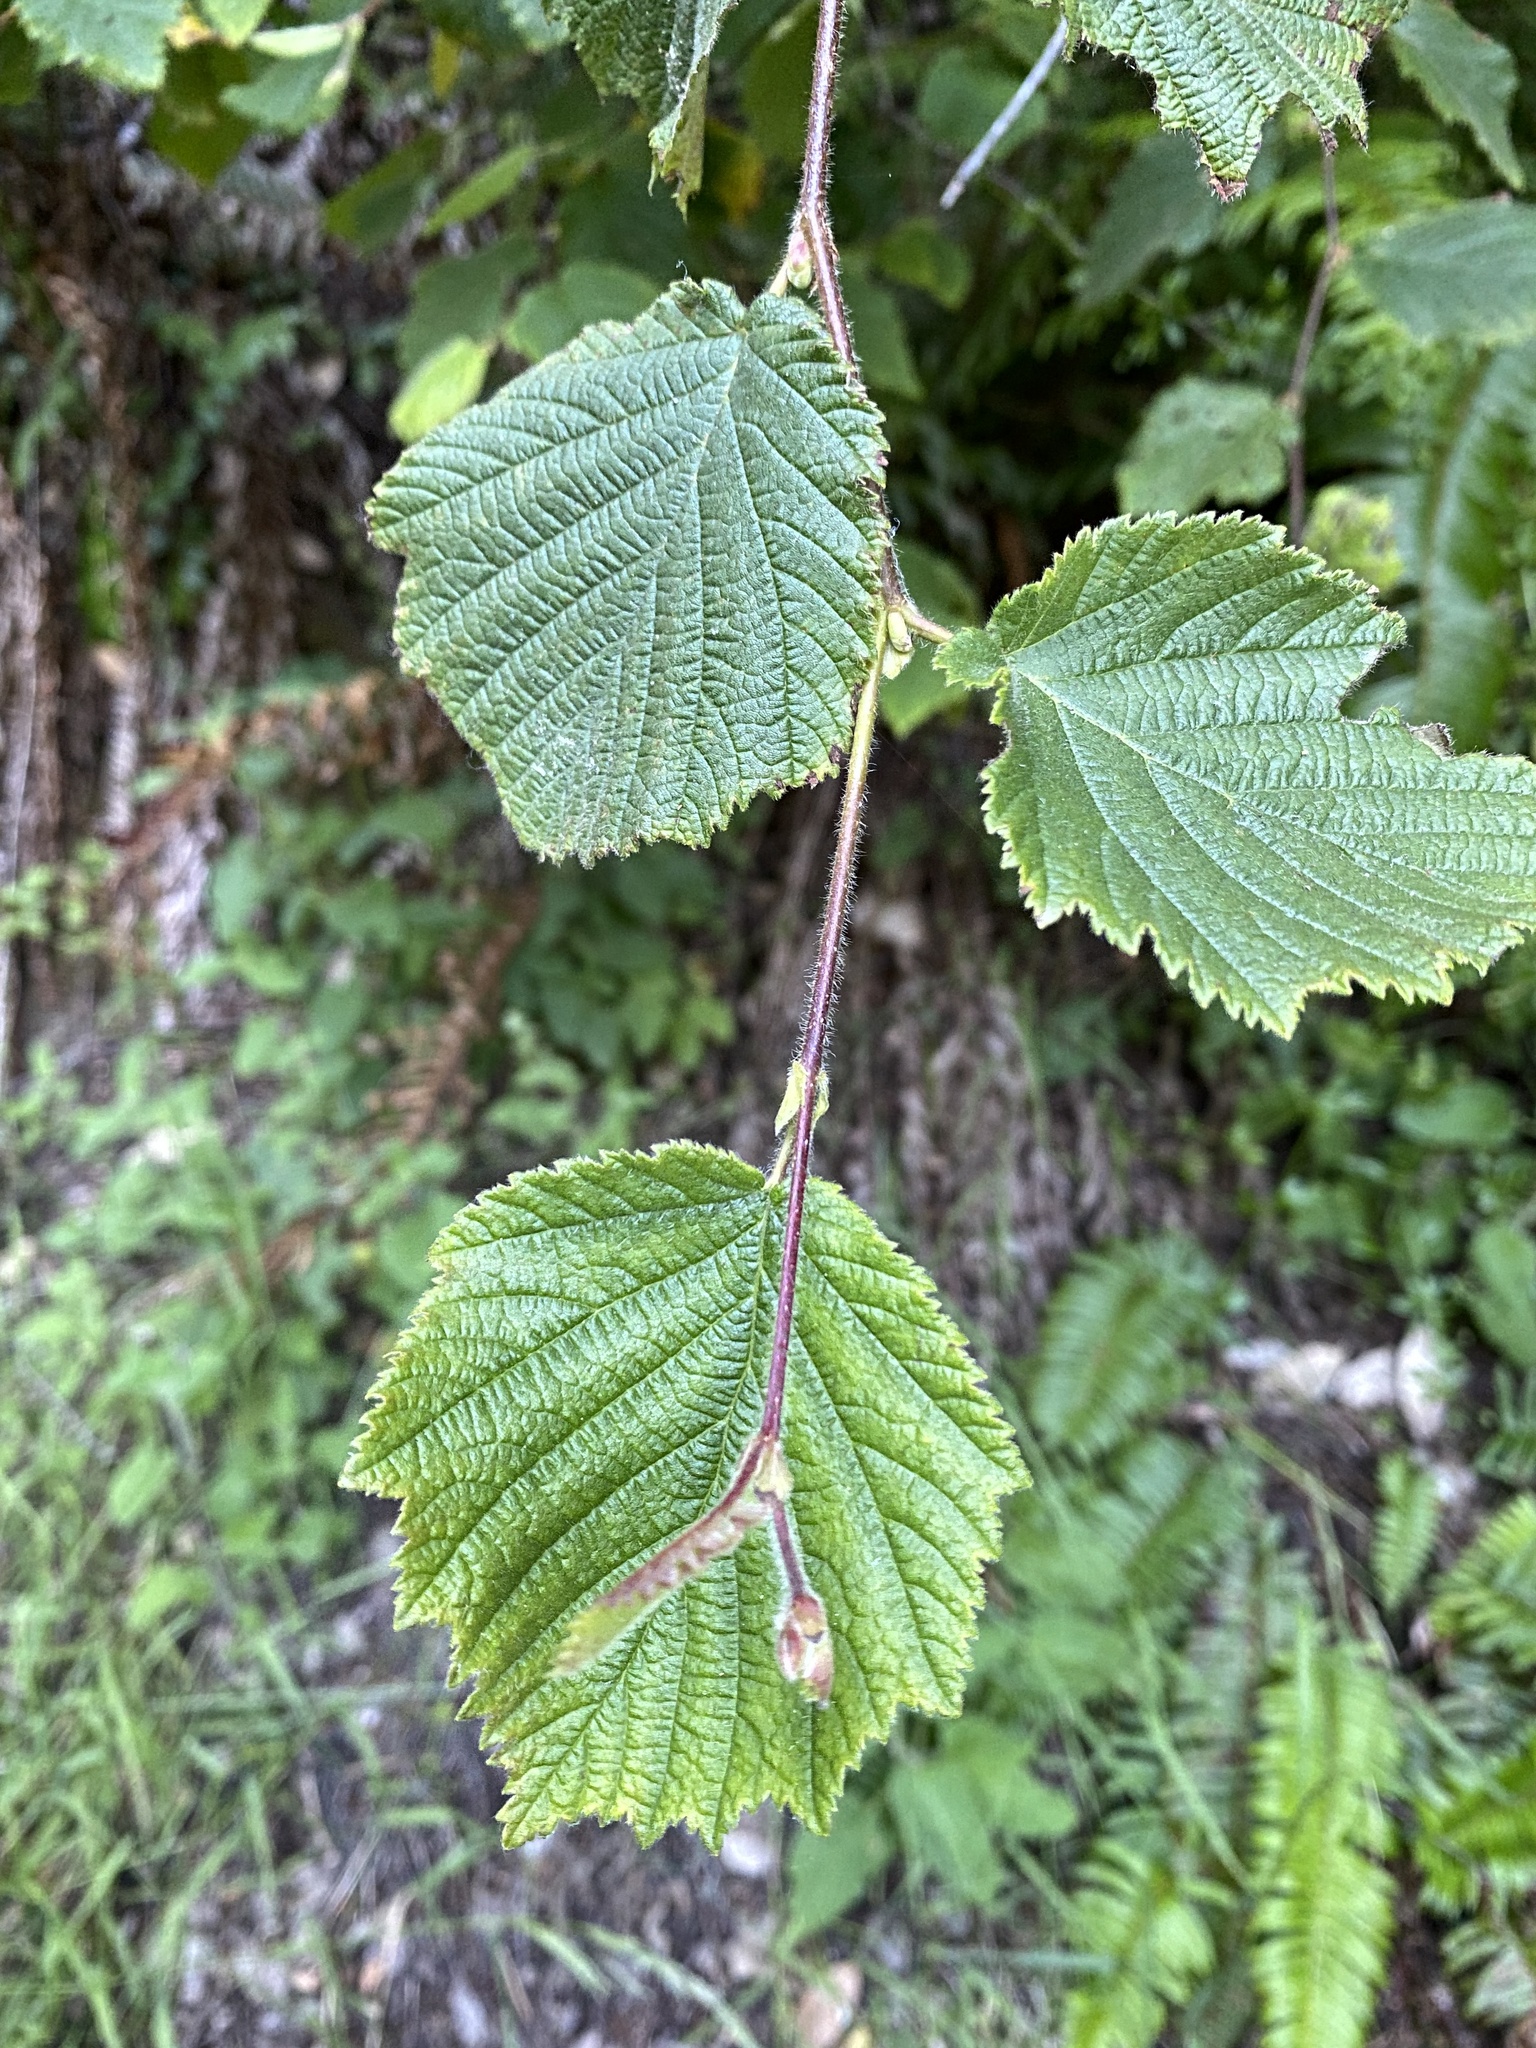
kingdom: Plantae
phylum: Tracheophyta
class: Magnoliopsida
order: Fagales
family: Betulaceae
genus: Corylus
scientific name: Corylus cornuta
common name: Beaked hazel
